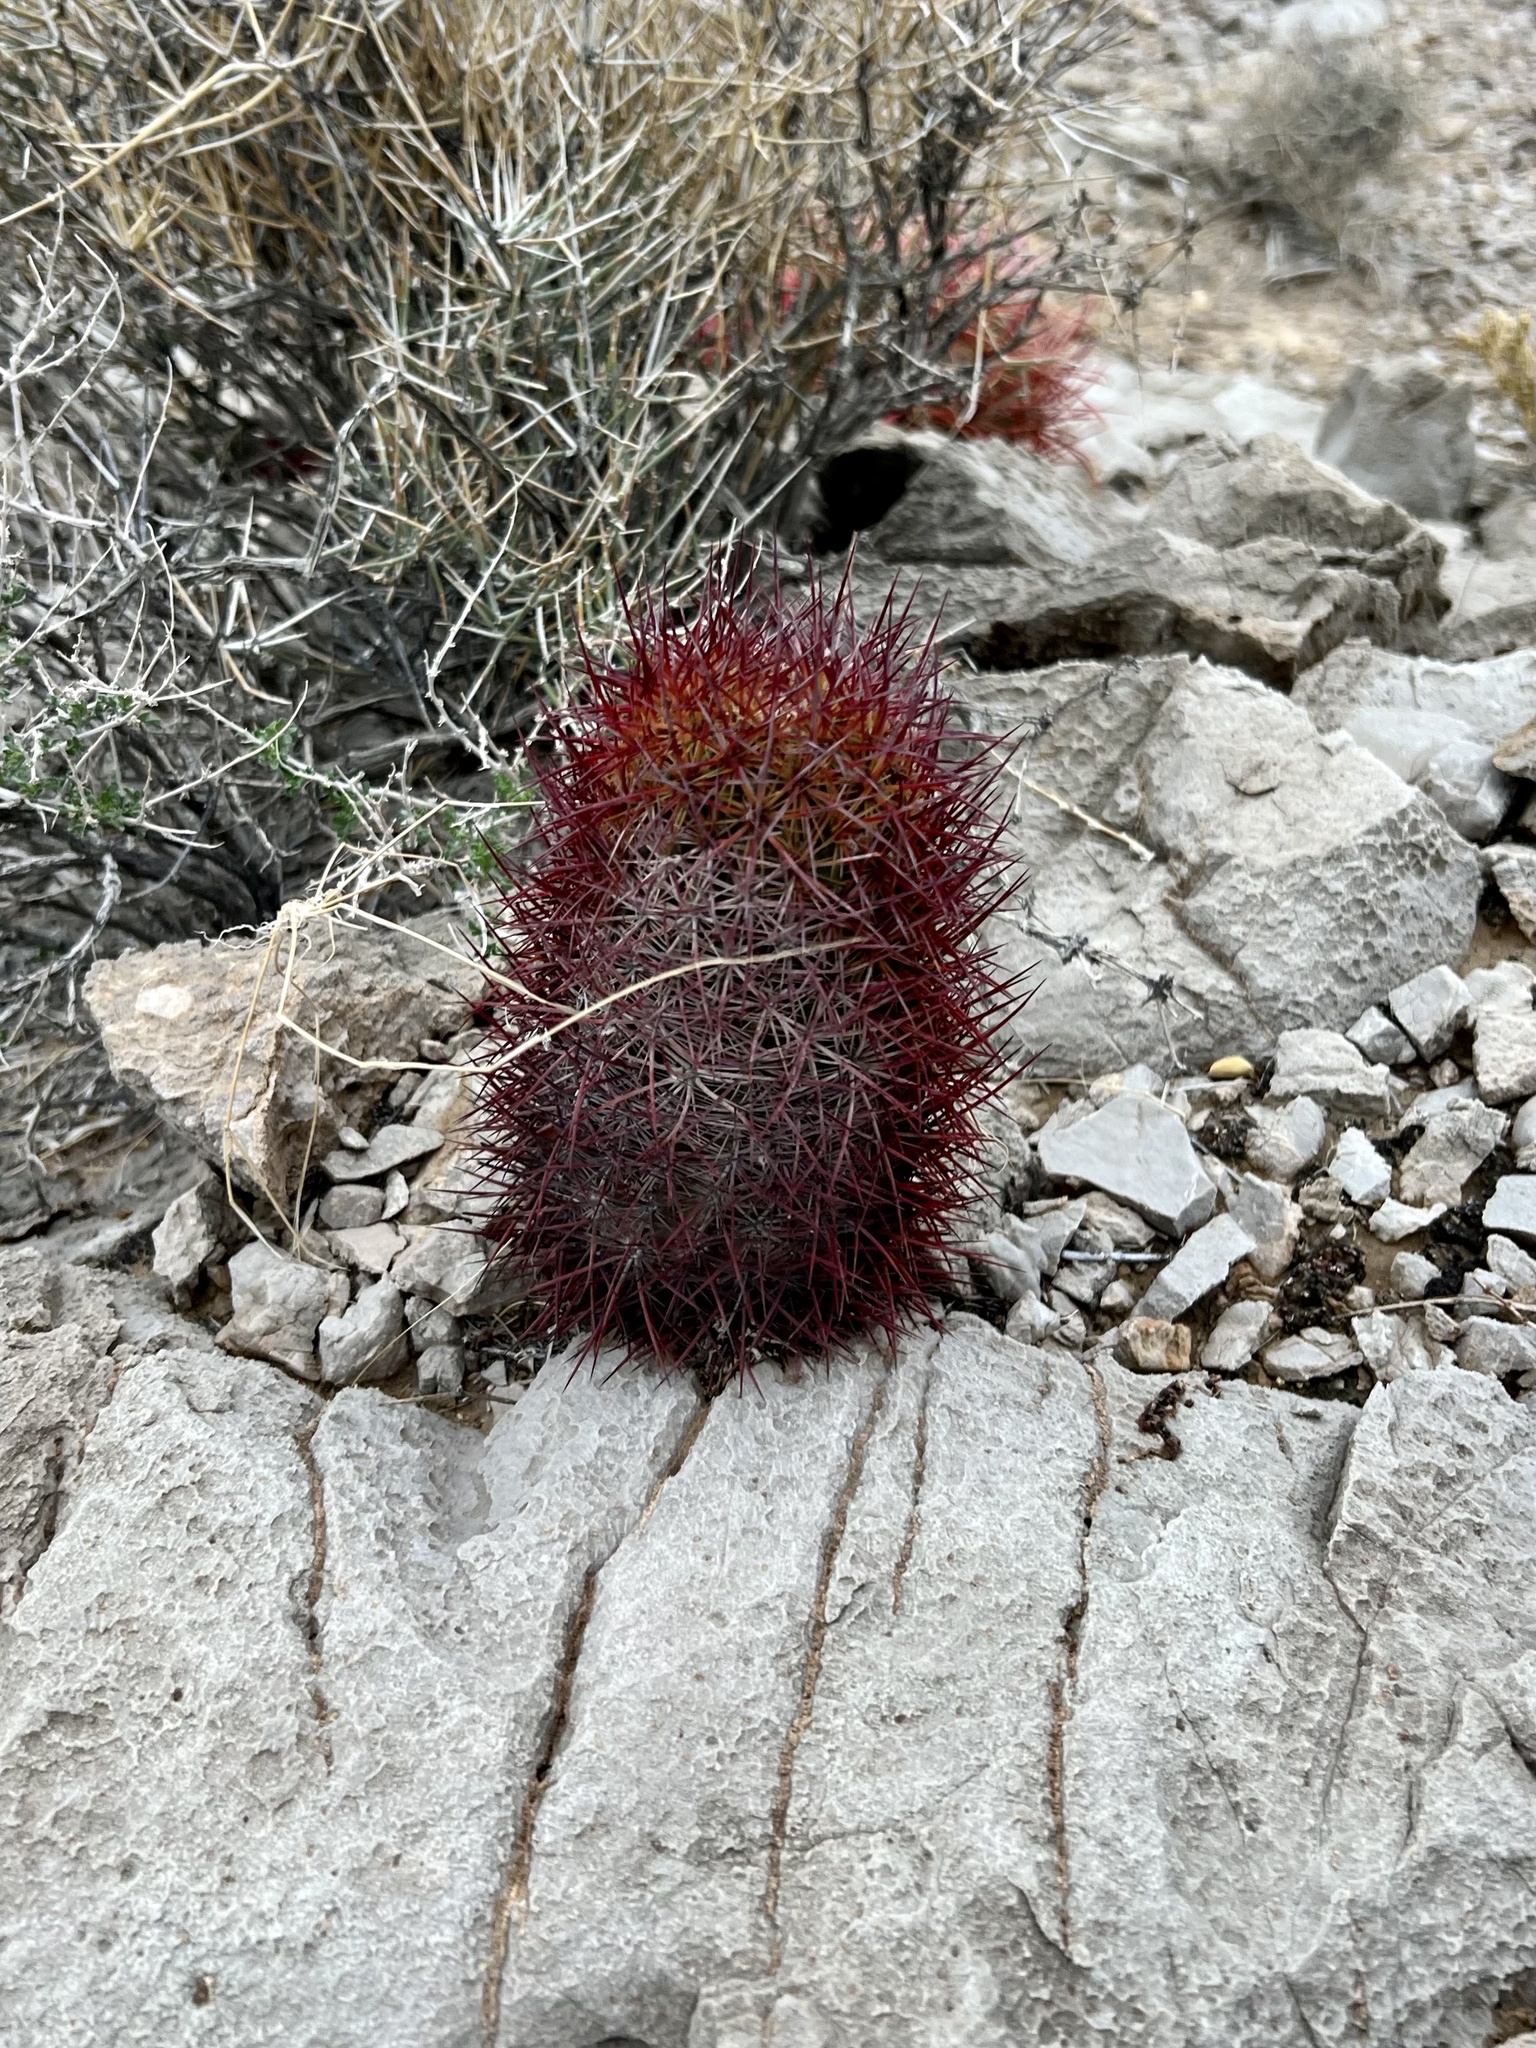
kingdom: Plantae
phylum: Tracheophyta
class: Magnoliopsida
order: Caryophyllales
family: Cactaceae
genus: Sclerocactus
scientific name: Sclerocactus johnsonii
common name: Eight-spine fishhook cactus
